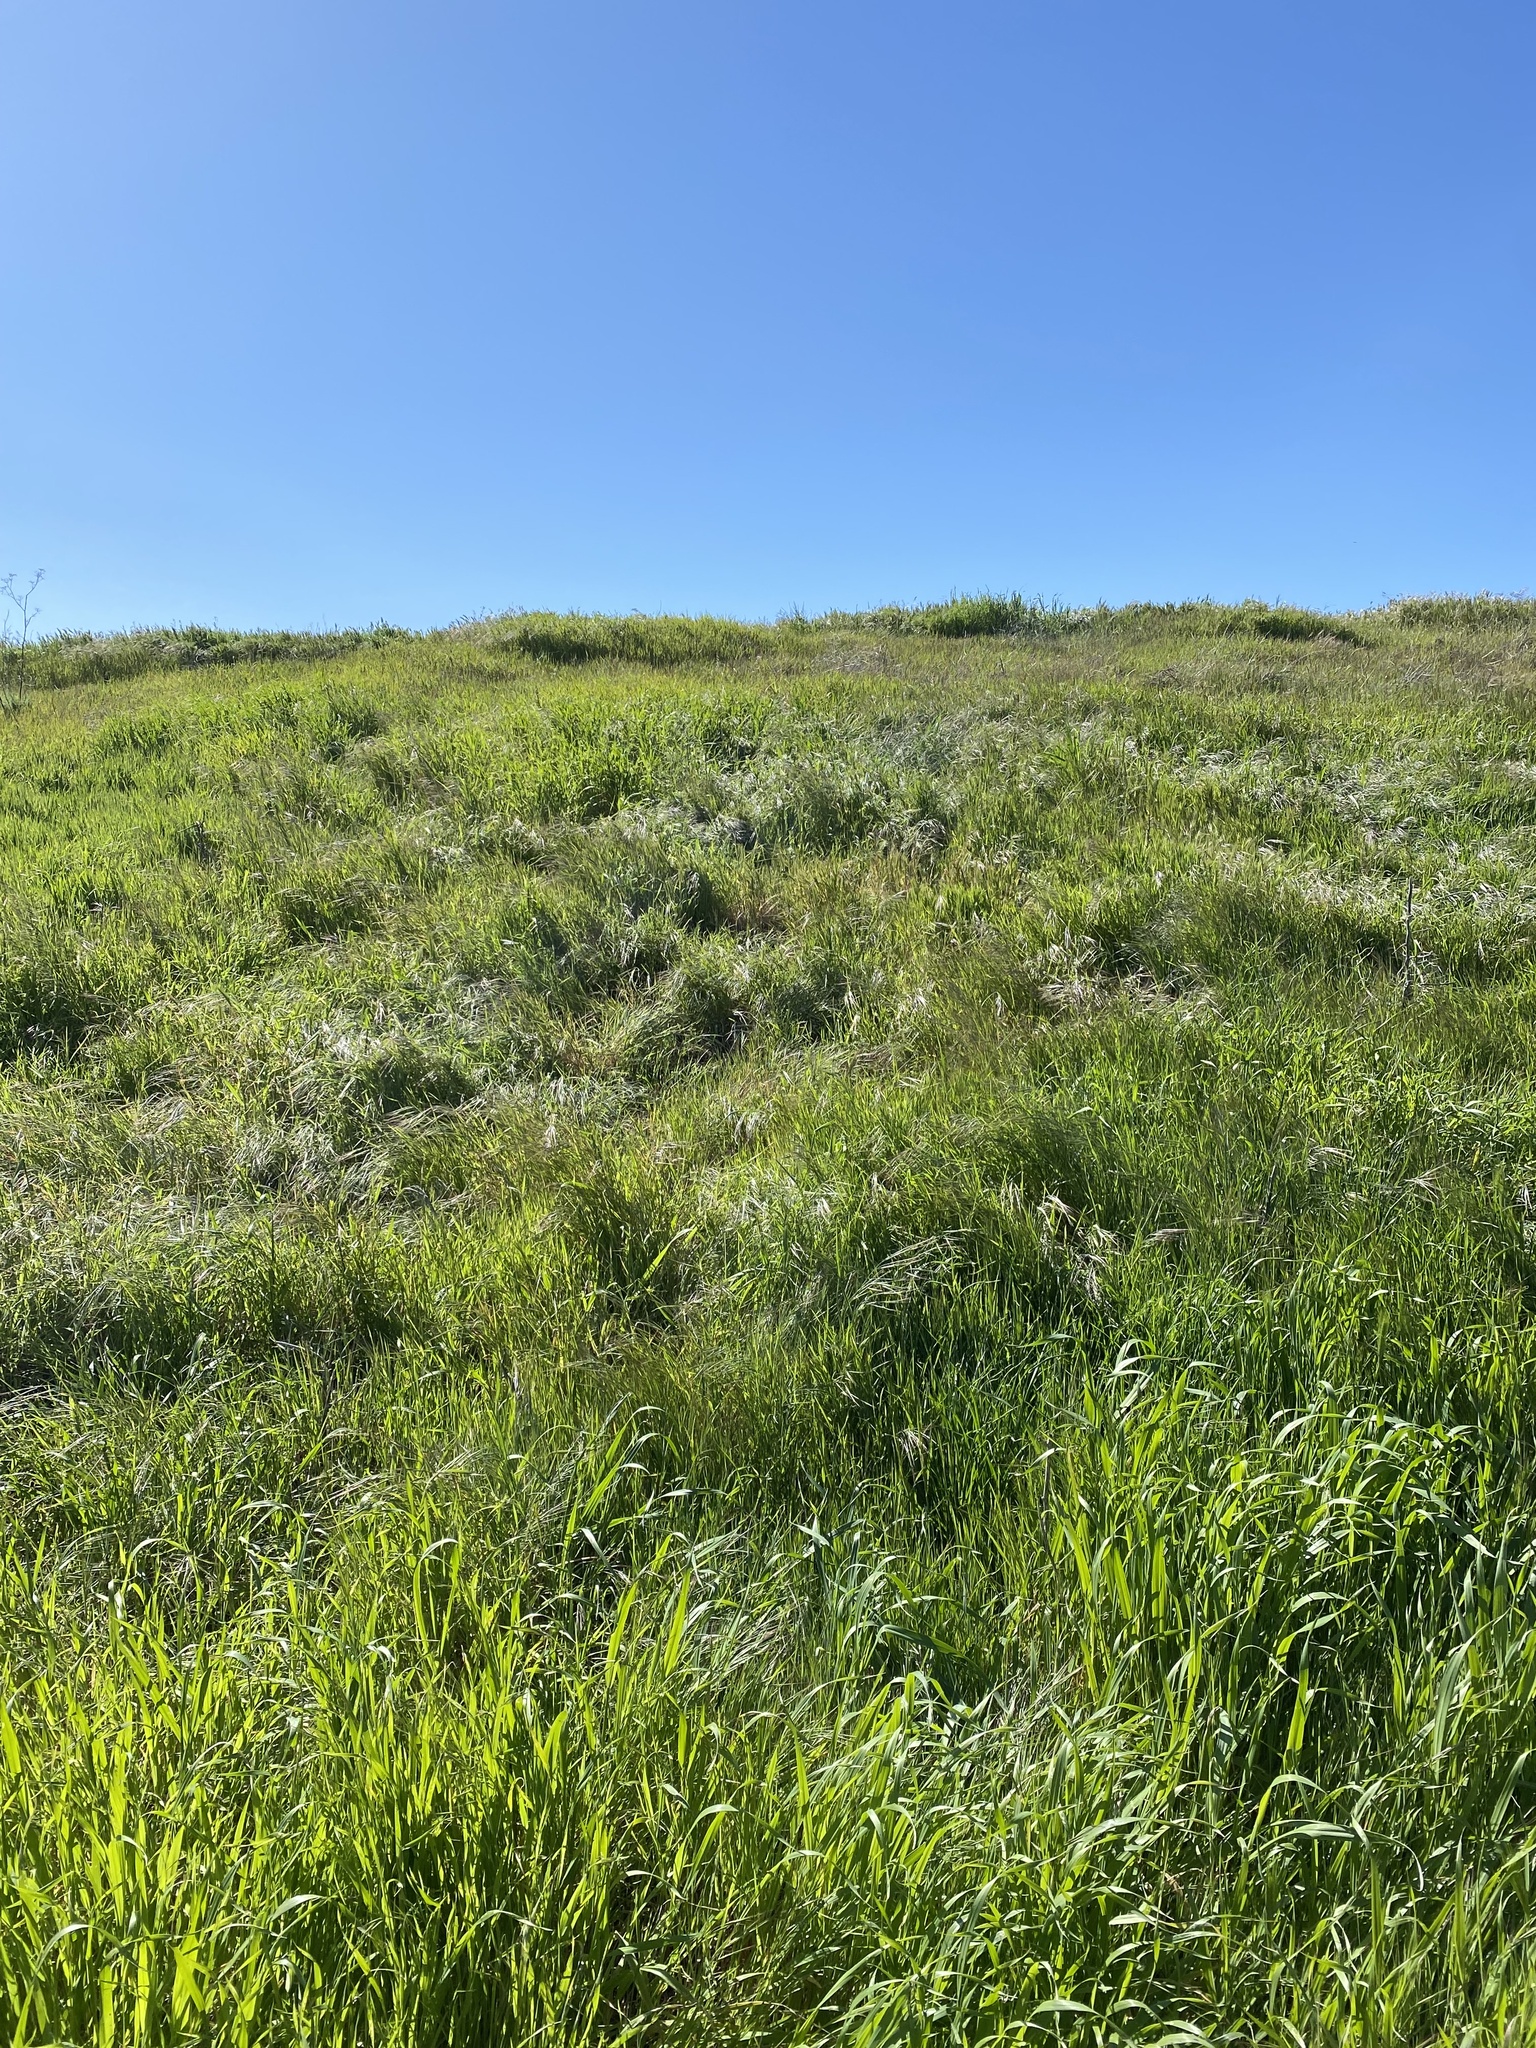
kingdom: Plantae
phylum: Tracheophyta
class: Liliopsida
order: Poales
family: Poaceae
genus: Bromus
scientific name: Bromus diandrus
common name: Ripgut brome
